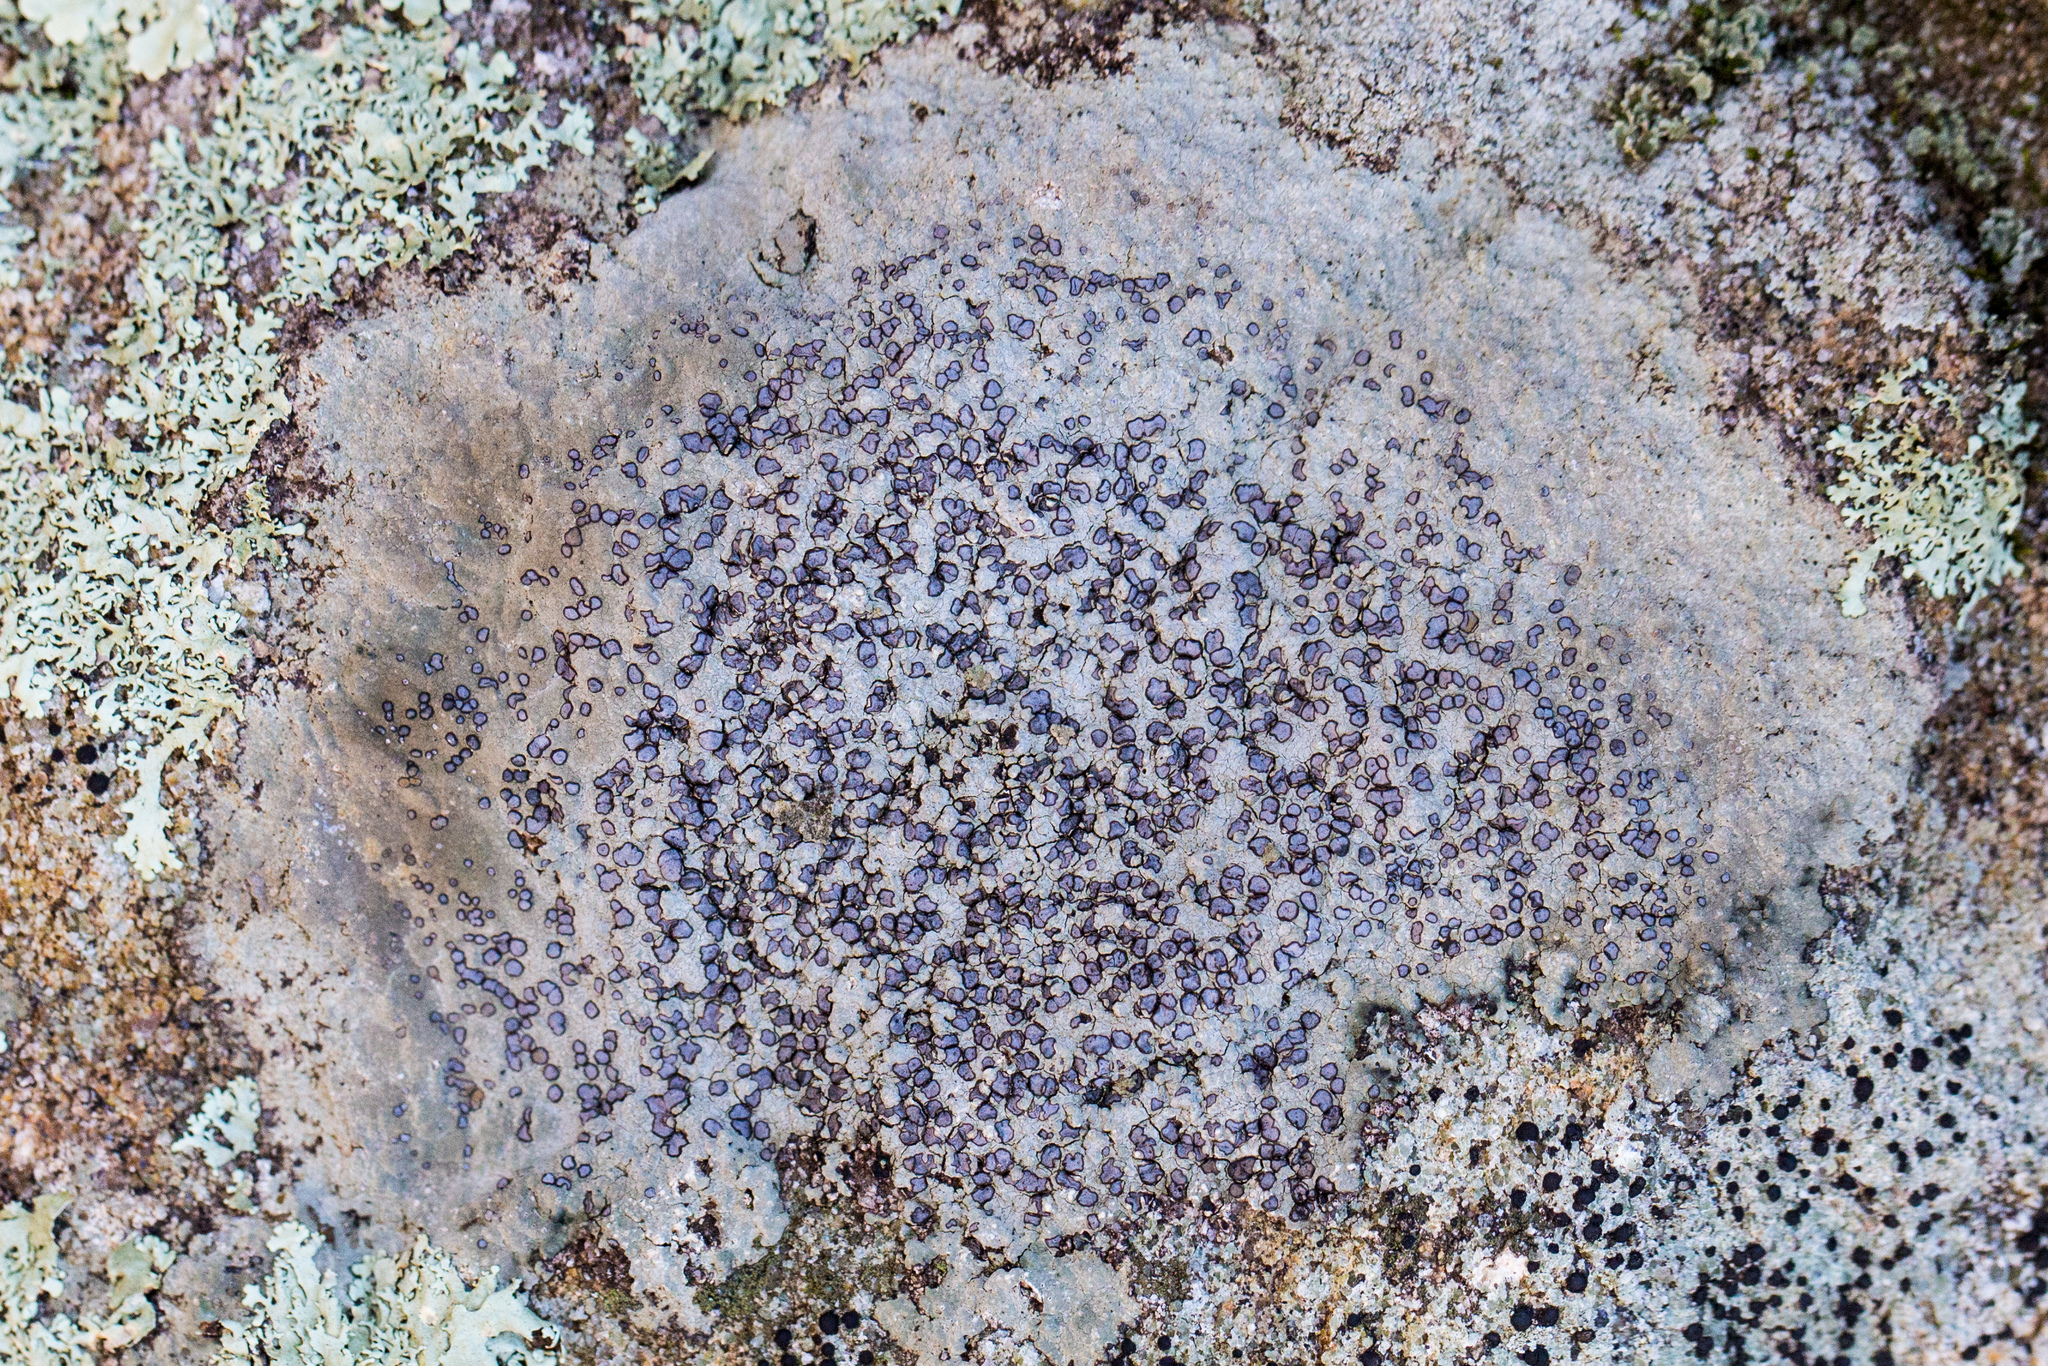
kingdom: Fungi
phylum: Ascomycota
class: Lecanoromycetes
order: Lecideales
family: Lecideaceae
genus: Porpidia
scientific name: Porpidia albocaerulescens
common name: Smokey-eyed boulder lichen
